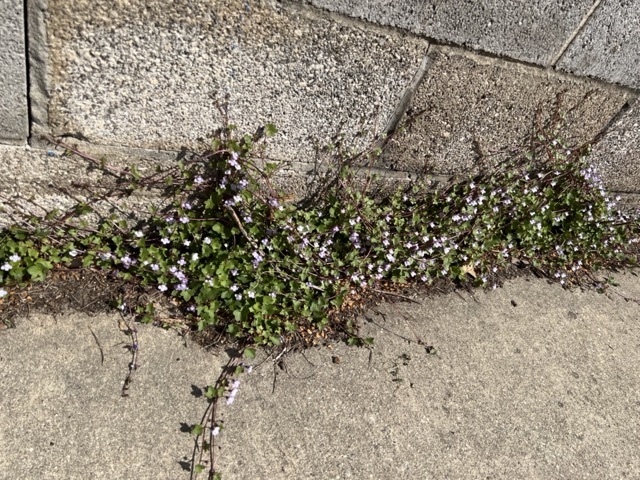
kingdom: Plantae
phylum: Tracheophyta
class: Magnoliopsida
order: Lamiales
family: Plantaginaceae
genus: Cymbalaria
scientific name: Cymbalaria muralis
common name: Ivy-leaved toadflax
